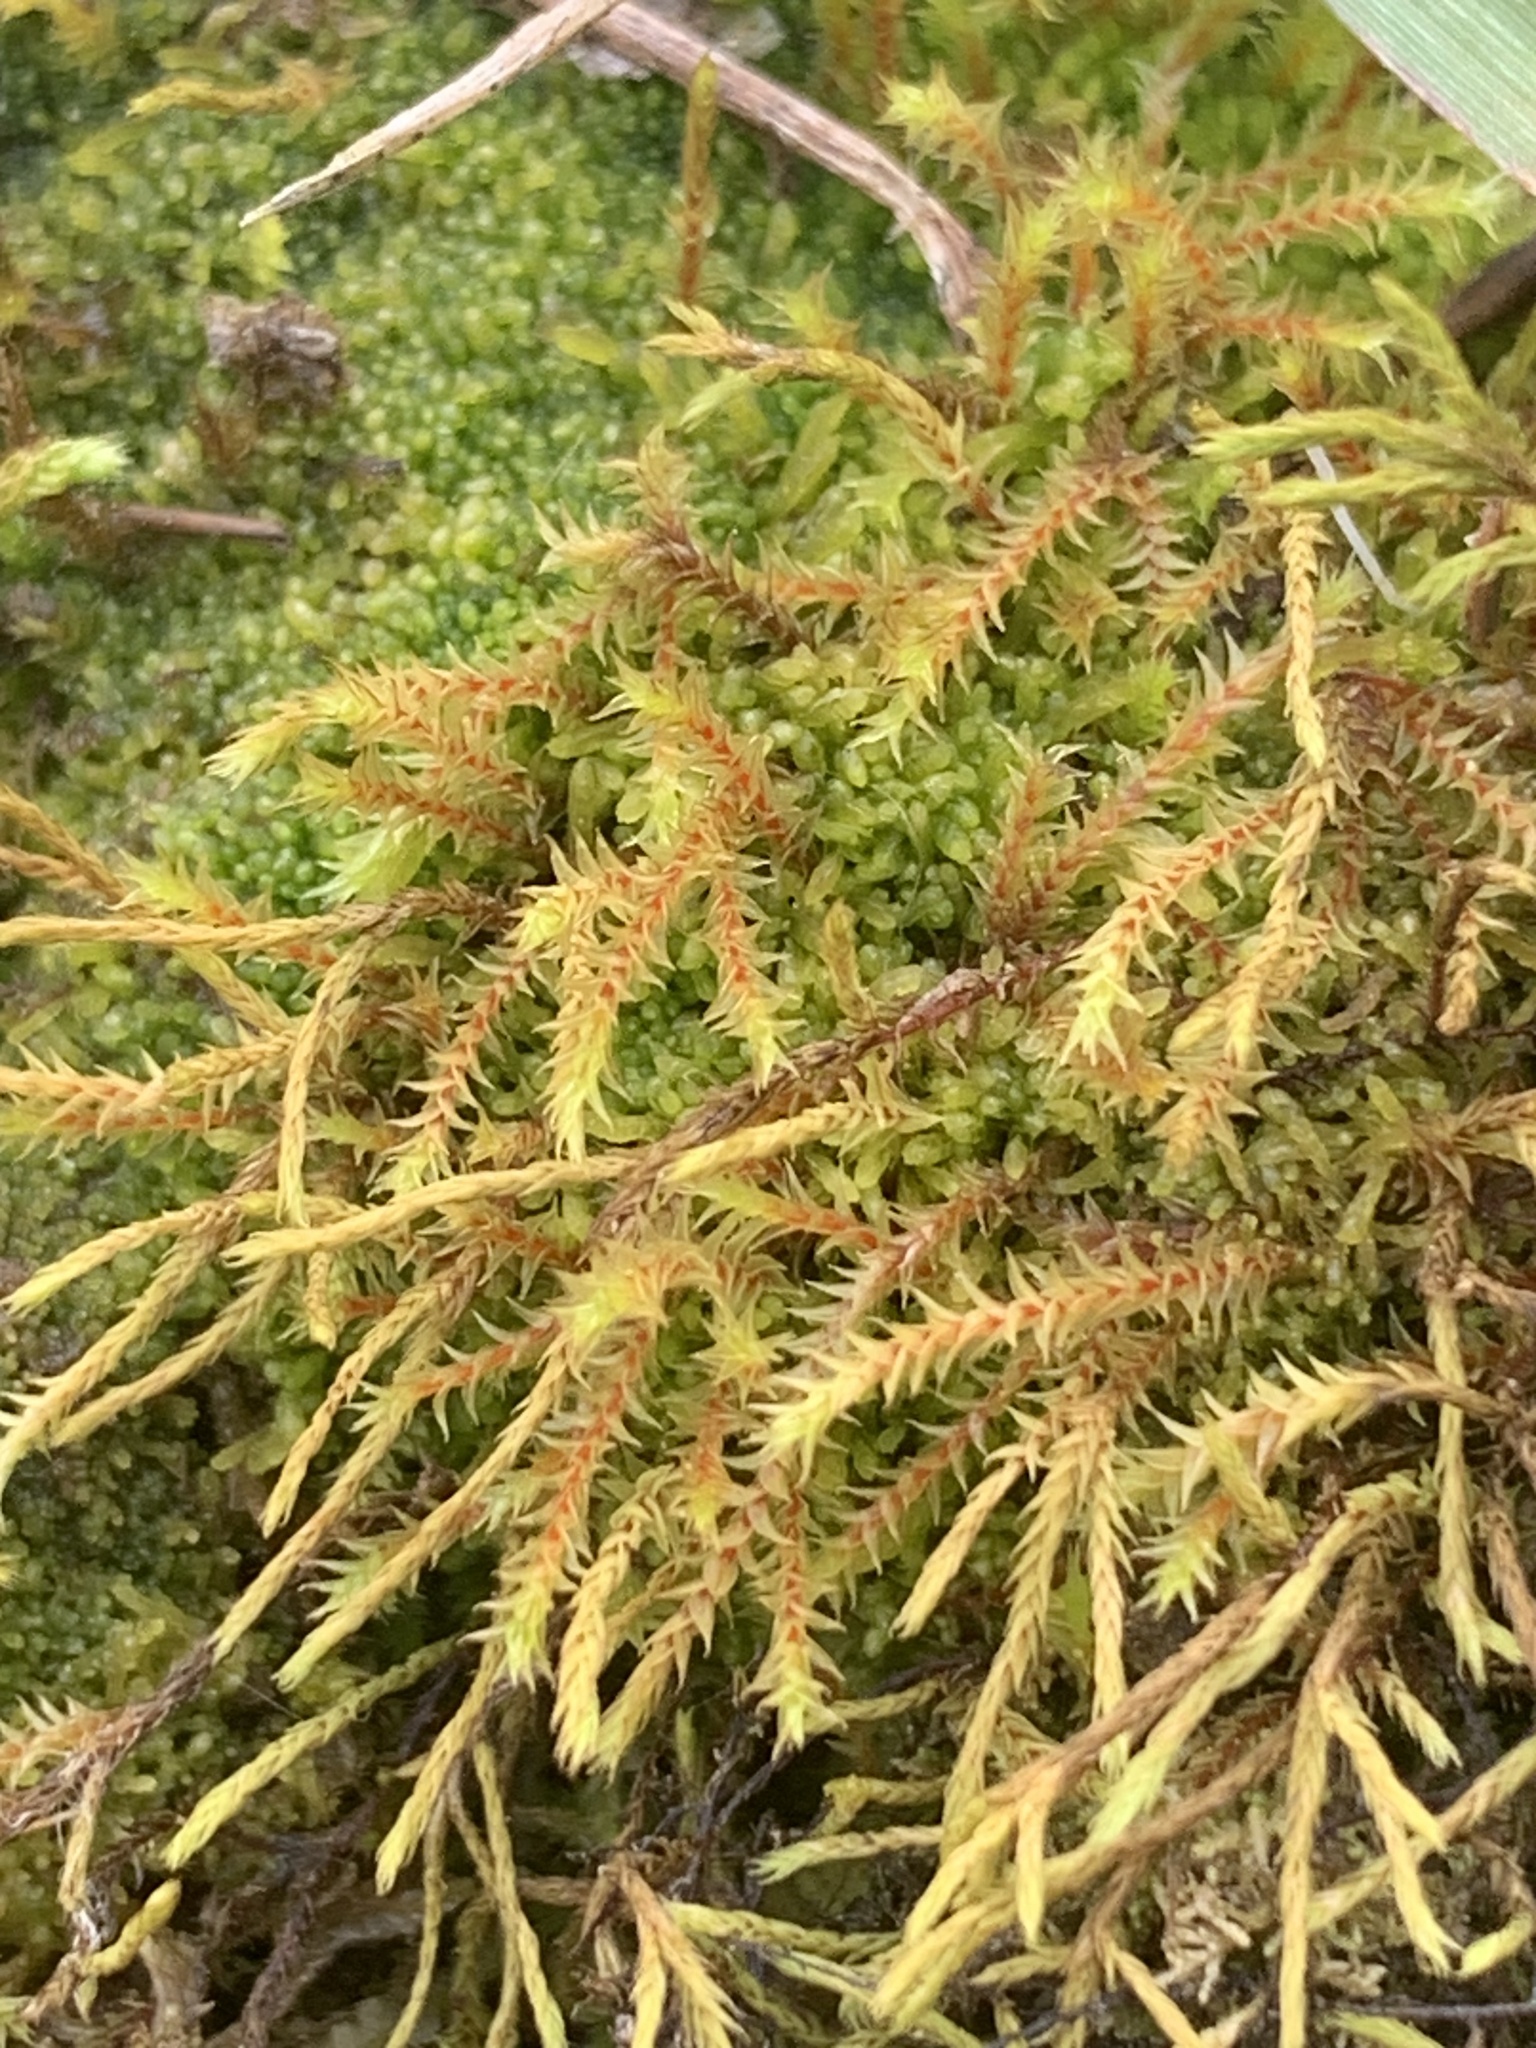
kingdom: Plantae
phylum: Bryophyta
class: Bryopsida
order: Pottiales
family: Pottiaceae
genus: Triquetrella
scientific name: Triquetrella papillata
